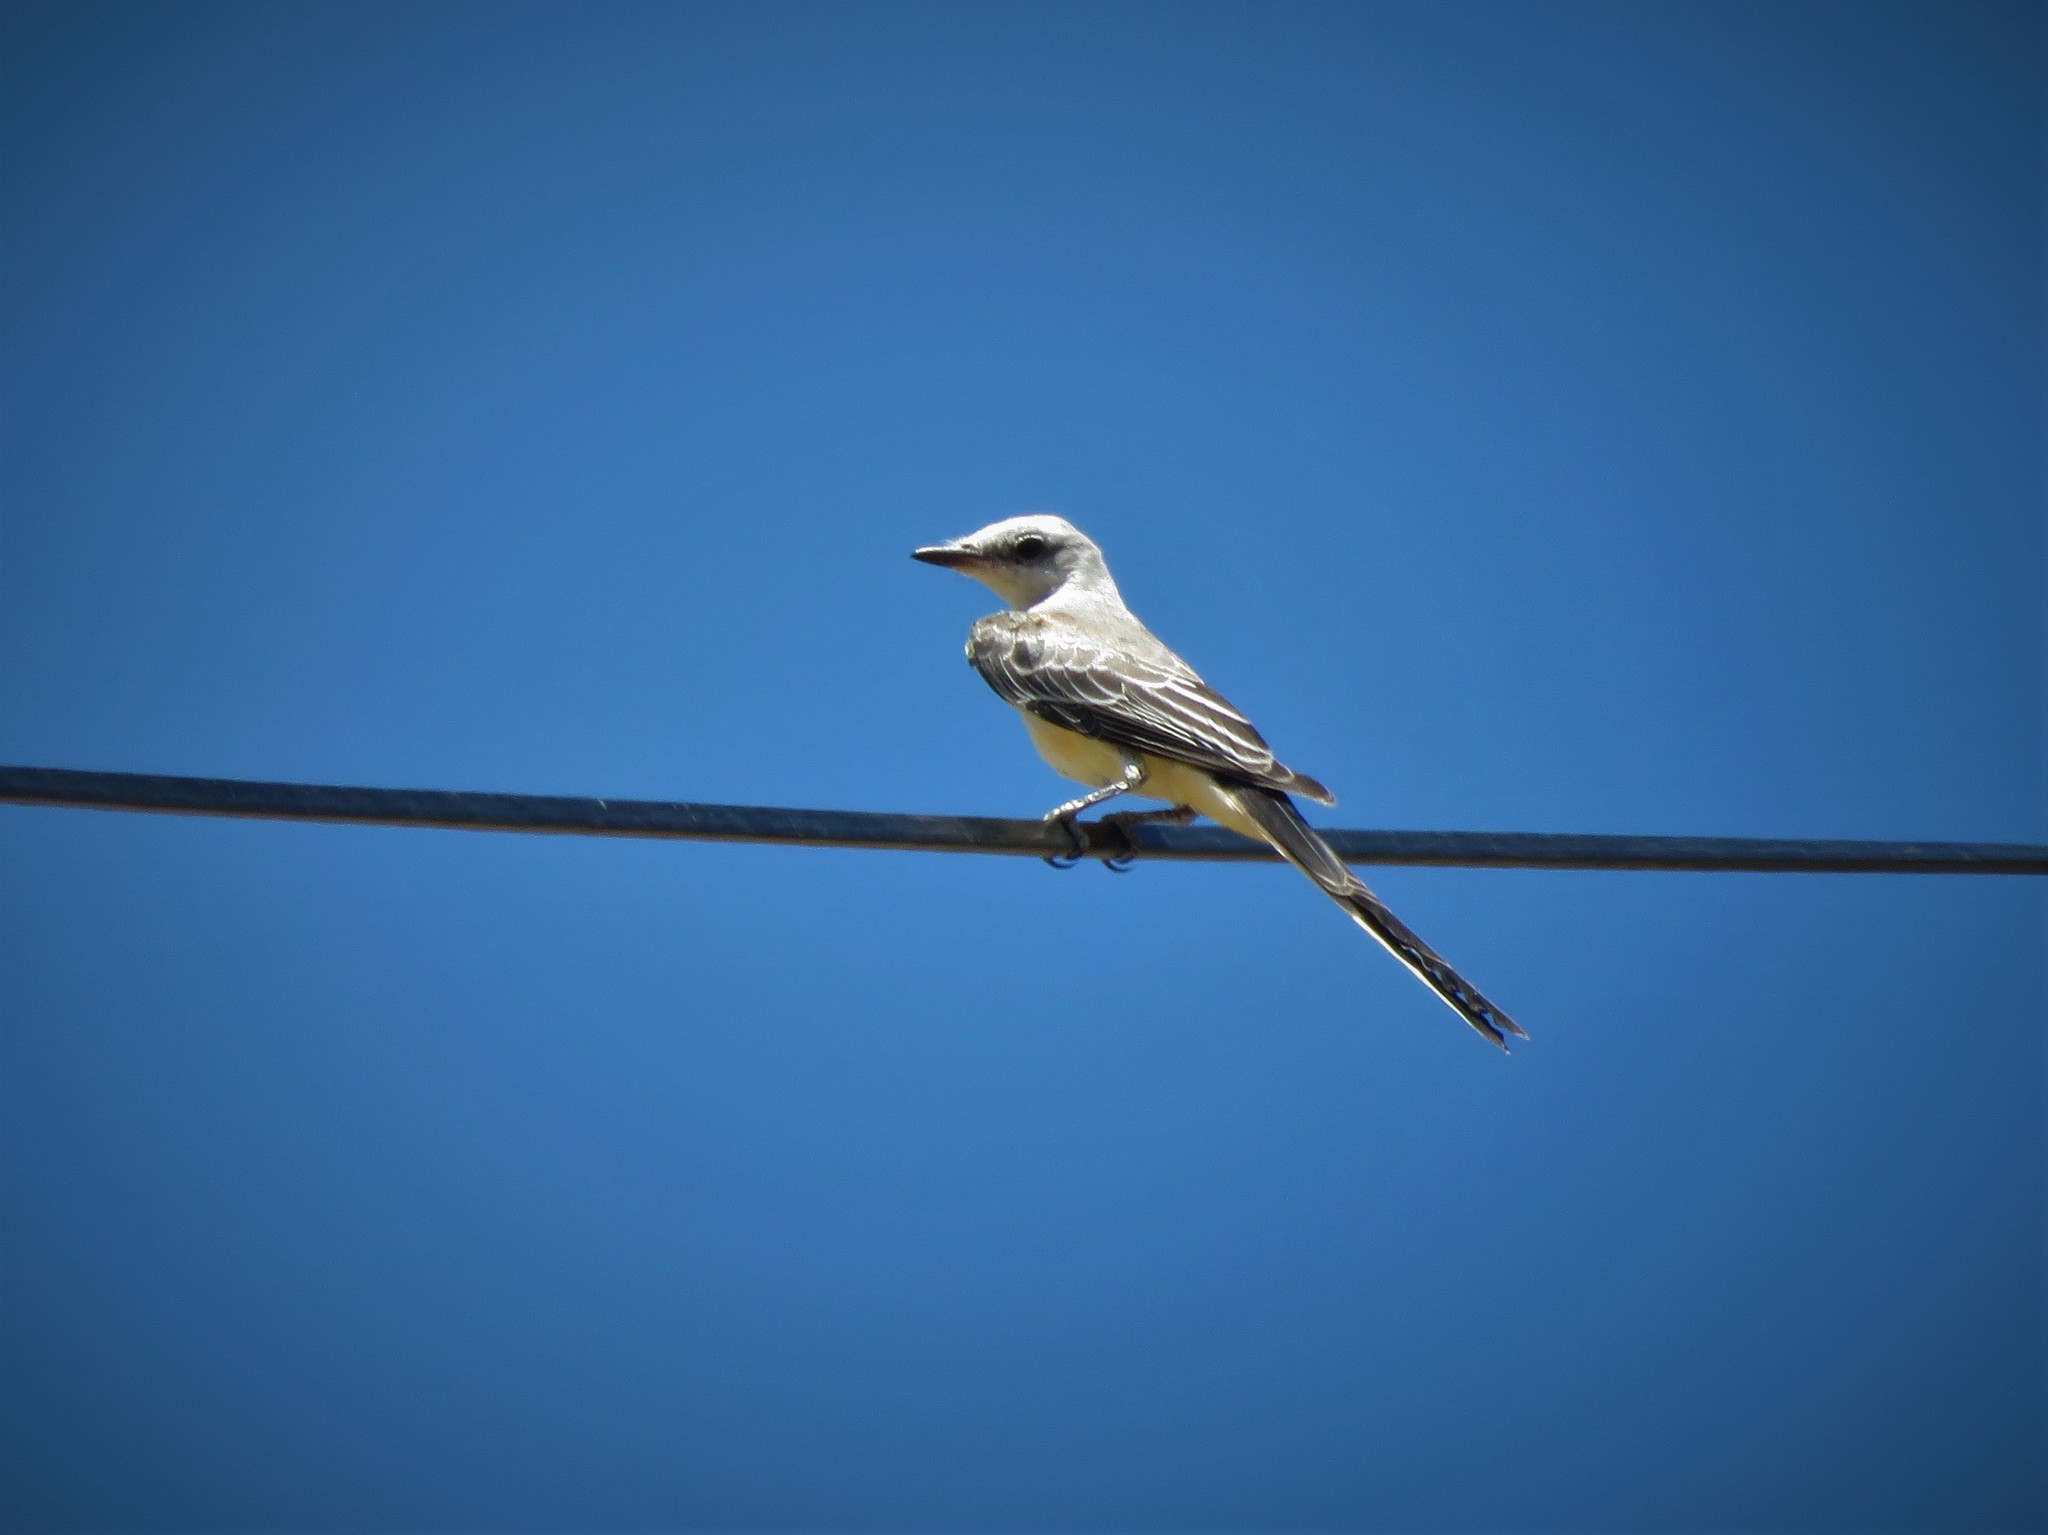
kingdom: Animalia
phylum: Chordata
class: Aves
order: Passeriformes
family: Tyrannidae
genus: Tyrannus
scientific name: Tyrannus forficatus
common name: Scissor-tailed flycatcher
